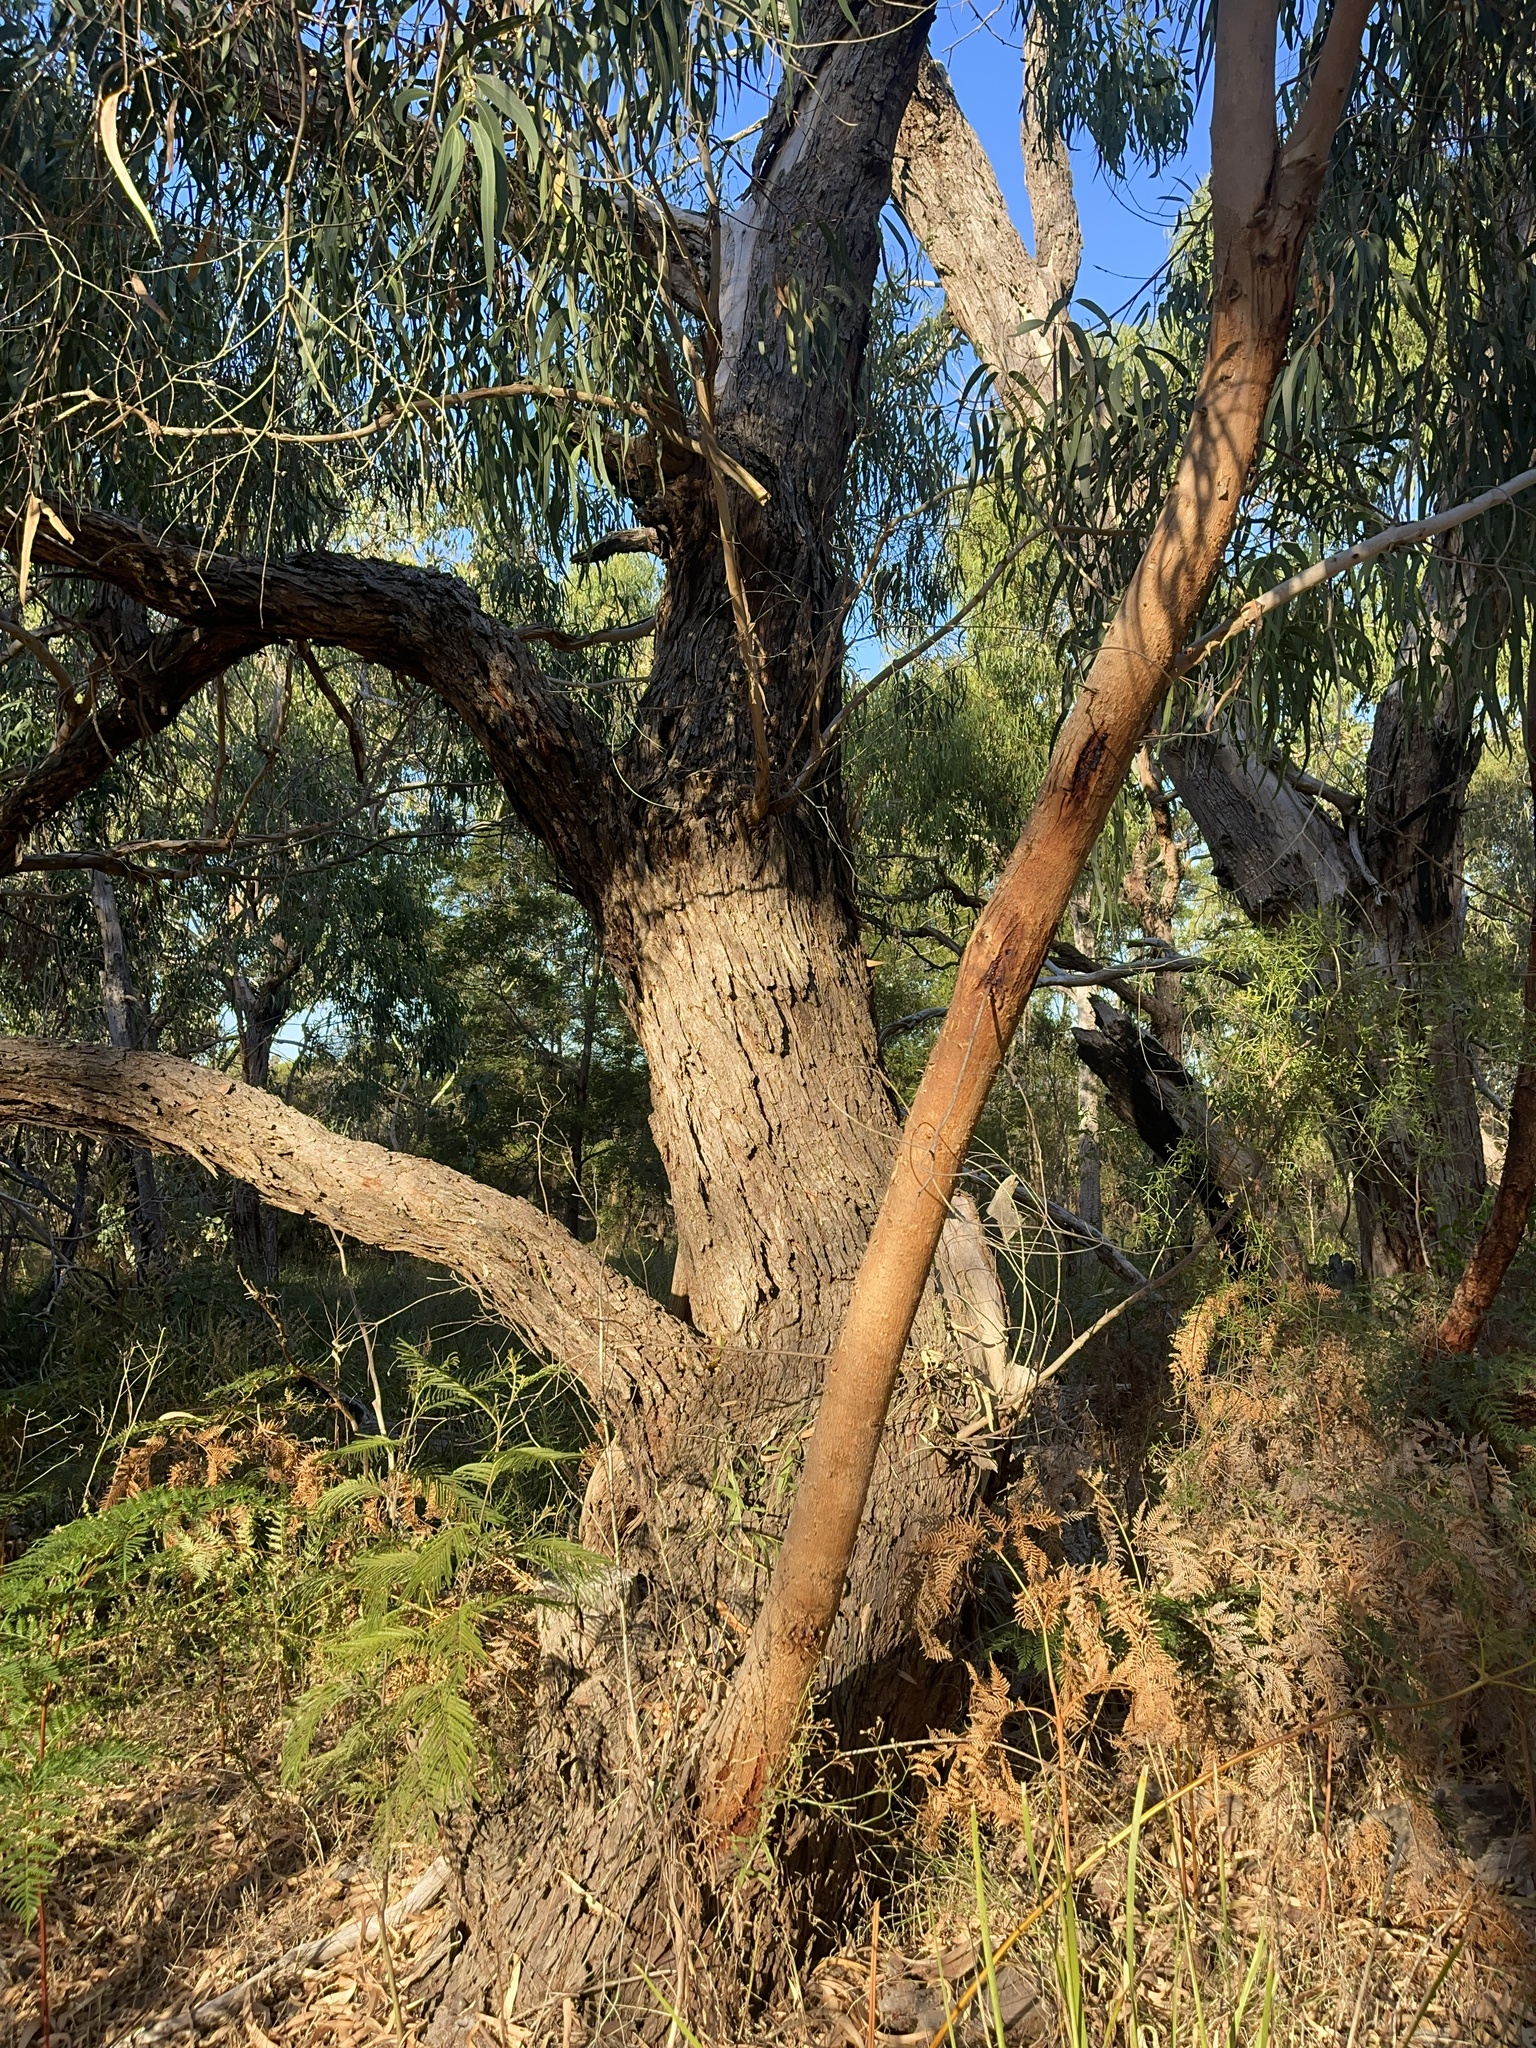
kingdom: Plantae
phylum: Tracheophyta
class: Magnoliopsida
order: Myrtales
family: Myrtaceae
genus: Eucalyptus
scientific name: Eucalyptus viminalis
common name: Manna gum
